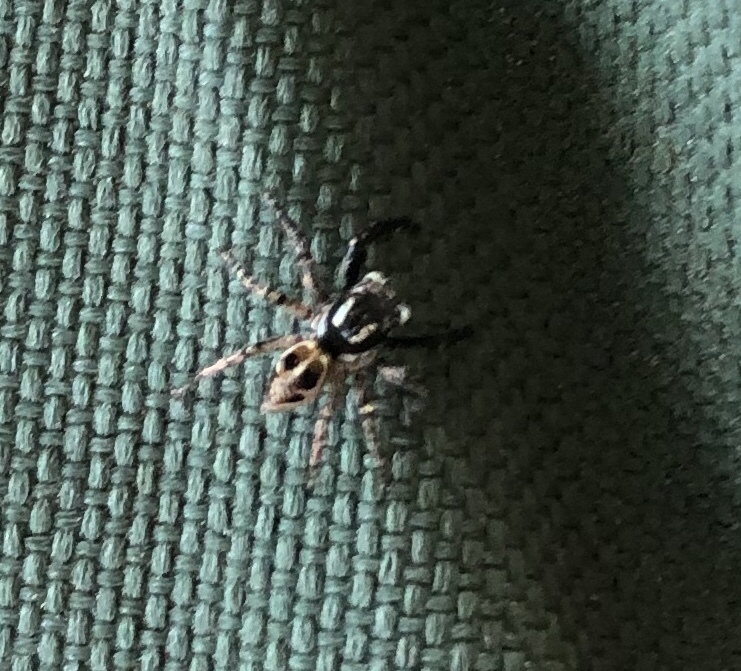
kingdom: Animalia
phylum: Arthropoda
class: Arachnida
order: Araneae
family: Salticidae
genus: Anasaitis
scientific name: Anasaitis canosa
